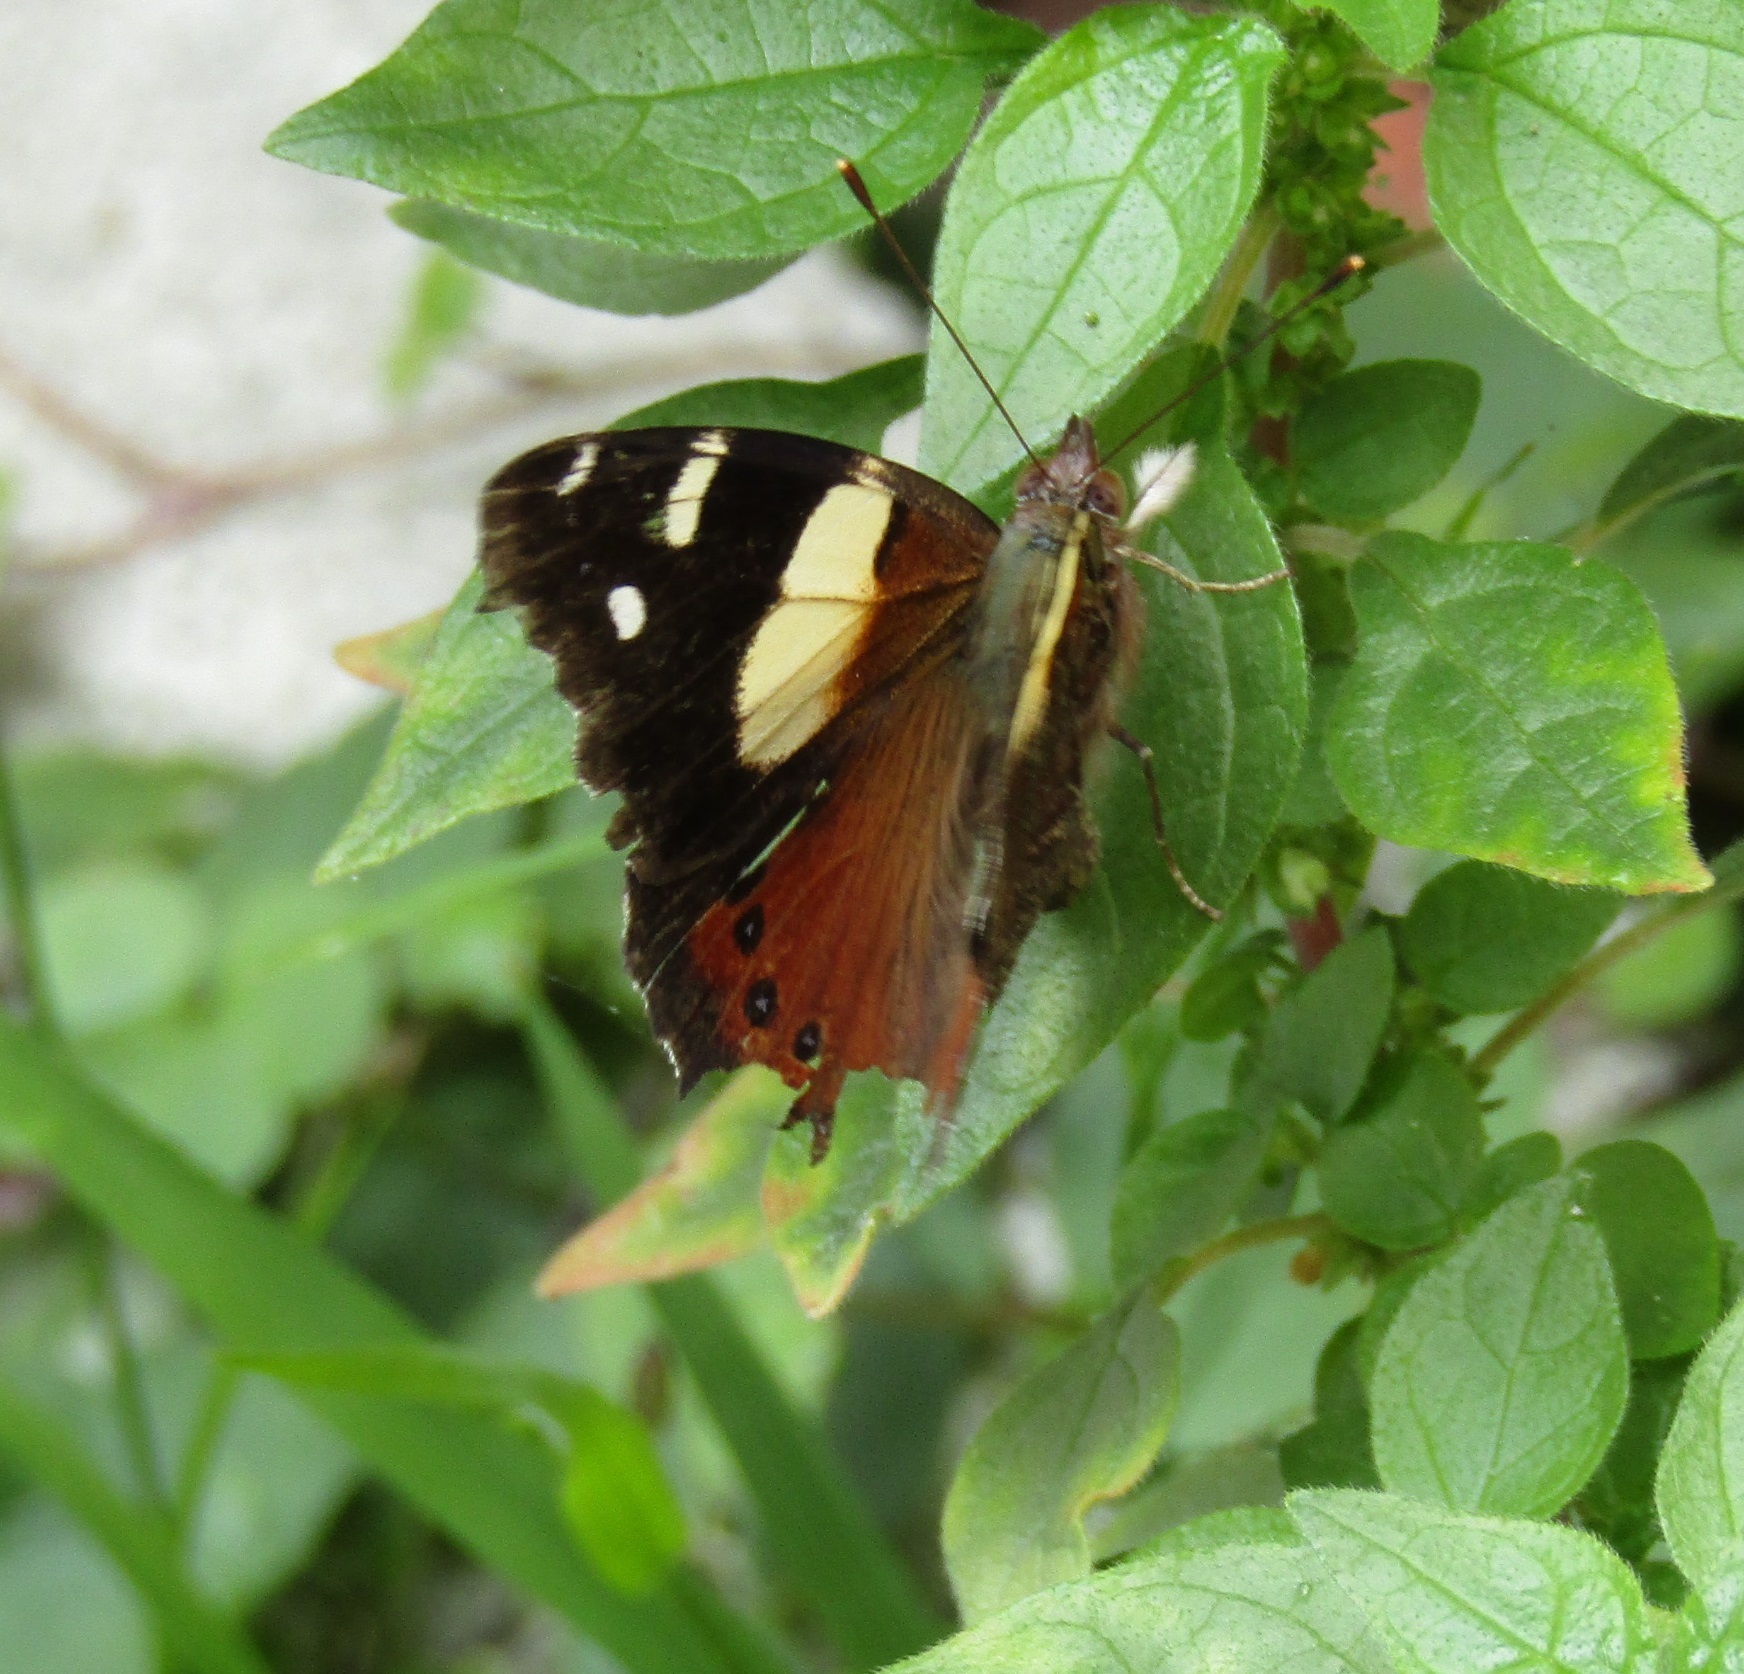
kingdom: Animalia
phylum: Arthropoda
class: Insecta
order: Lepidoptera
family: Nymphalidae
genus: Vanessa
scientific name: Vanessa itea
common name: Yellow admiral
